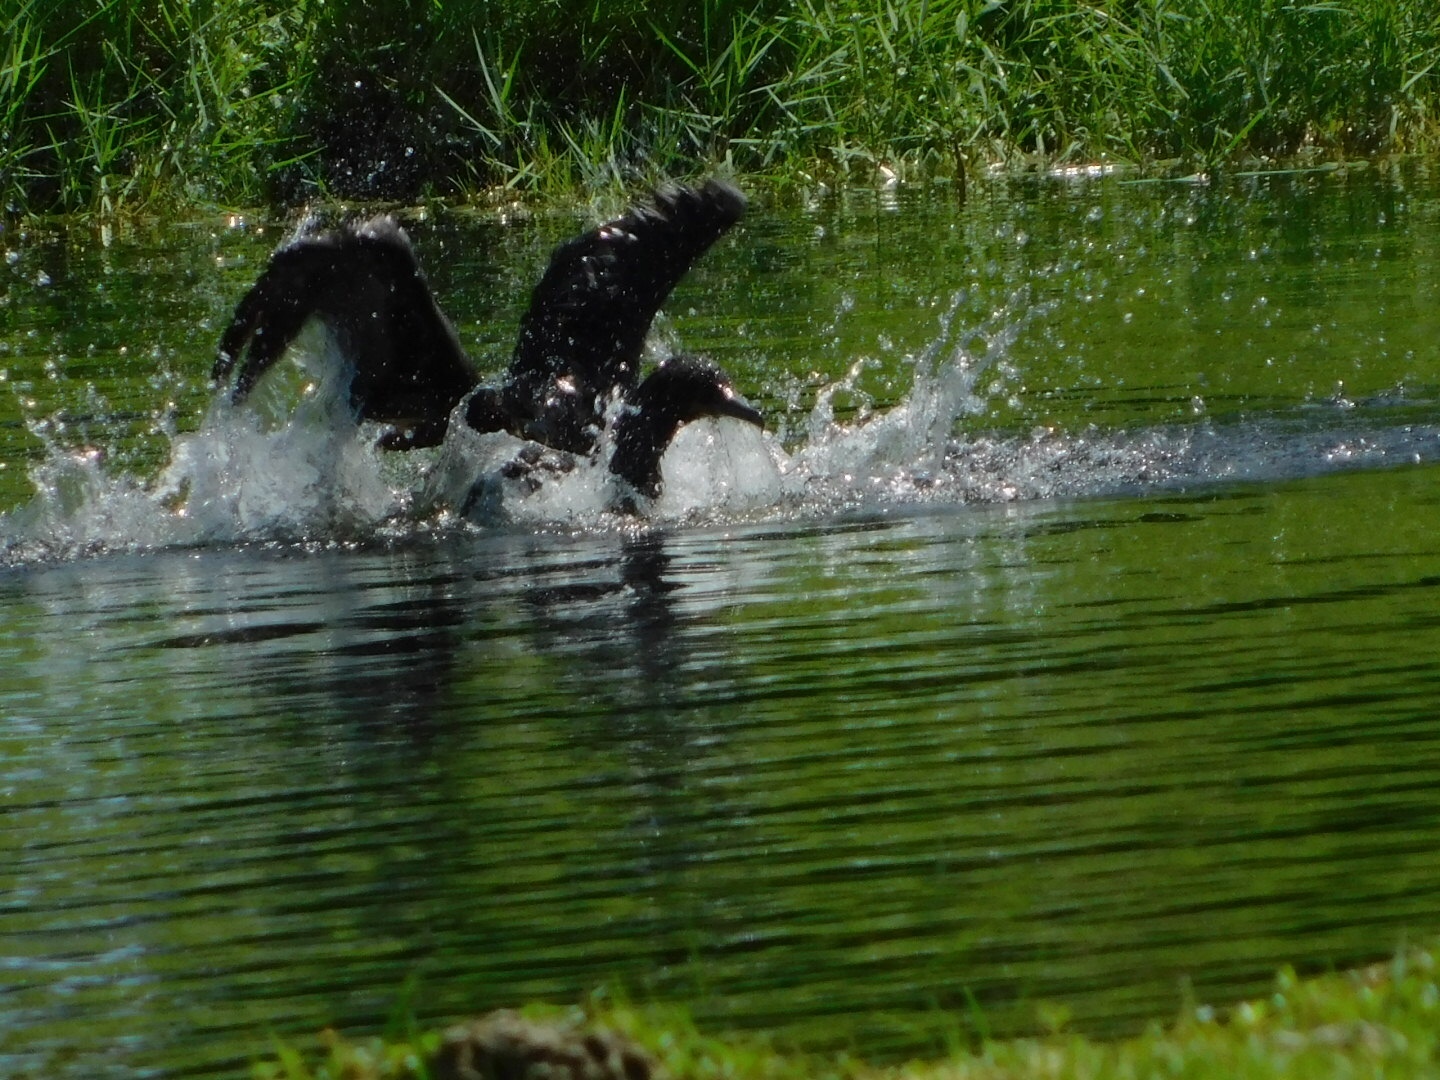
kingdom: Animalia
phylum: Chordata
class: Aves
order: Suliformes
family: Phalacrocoracidae
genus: Phalacrocorax
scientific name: Phalacrocorax auritus
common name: Double-crested cormorant
